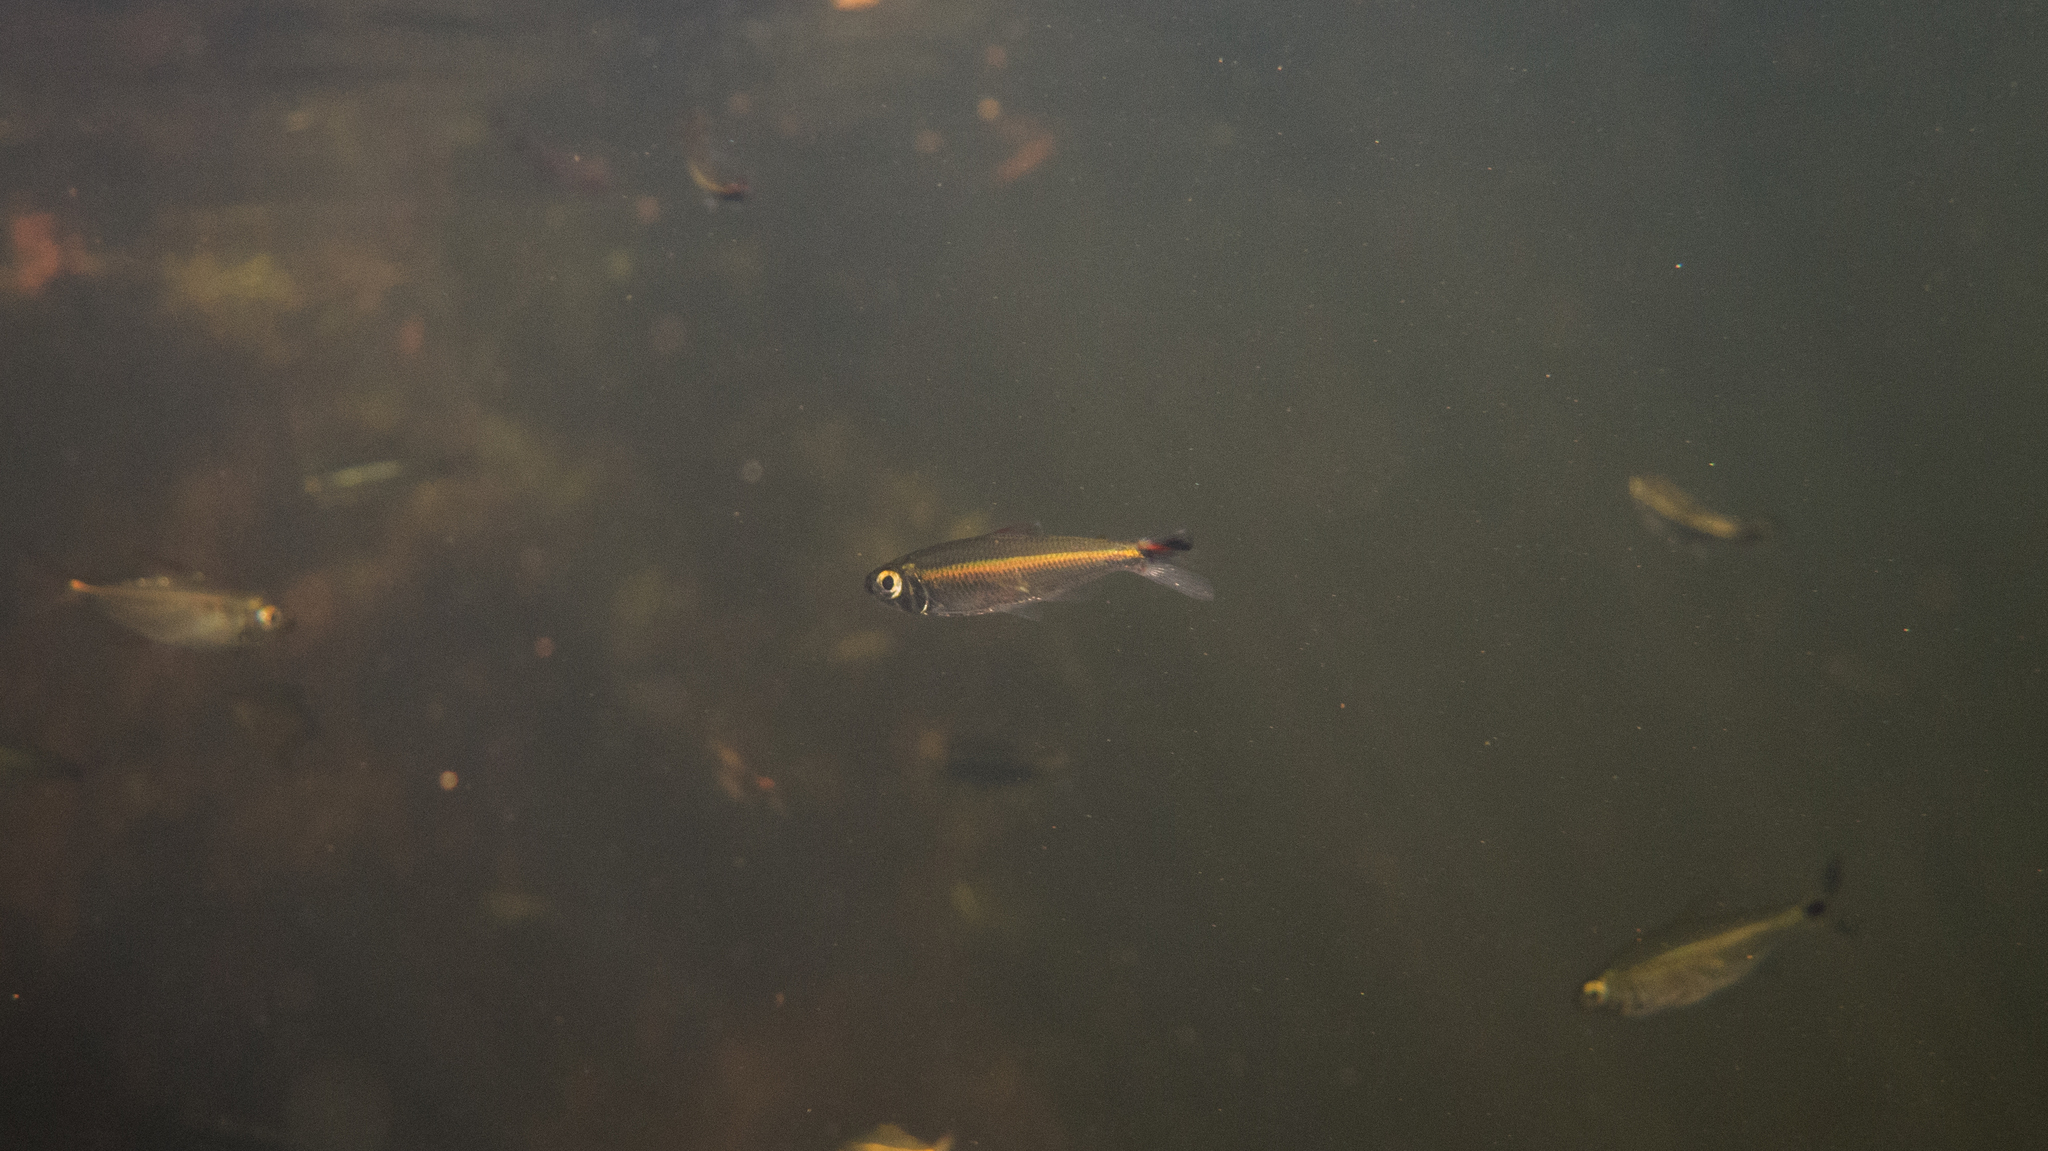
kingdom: Animalia
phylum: Chordata
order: Characiformes
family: Iguanodectidae
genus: Bryconops
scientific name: Bryconops tocantinensis
